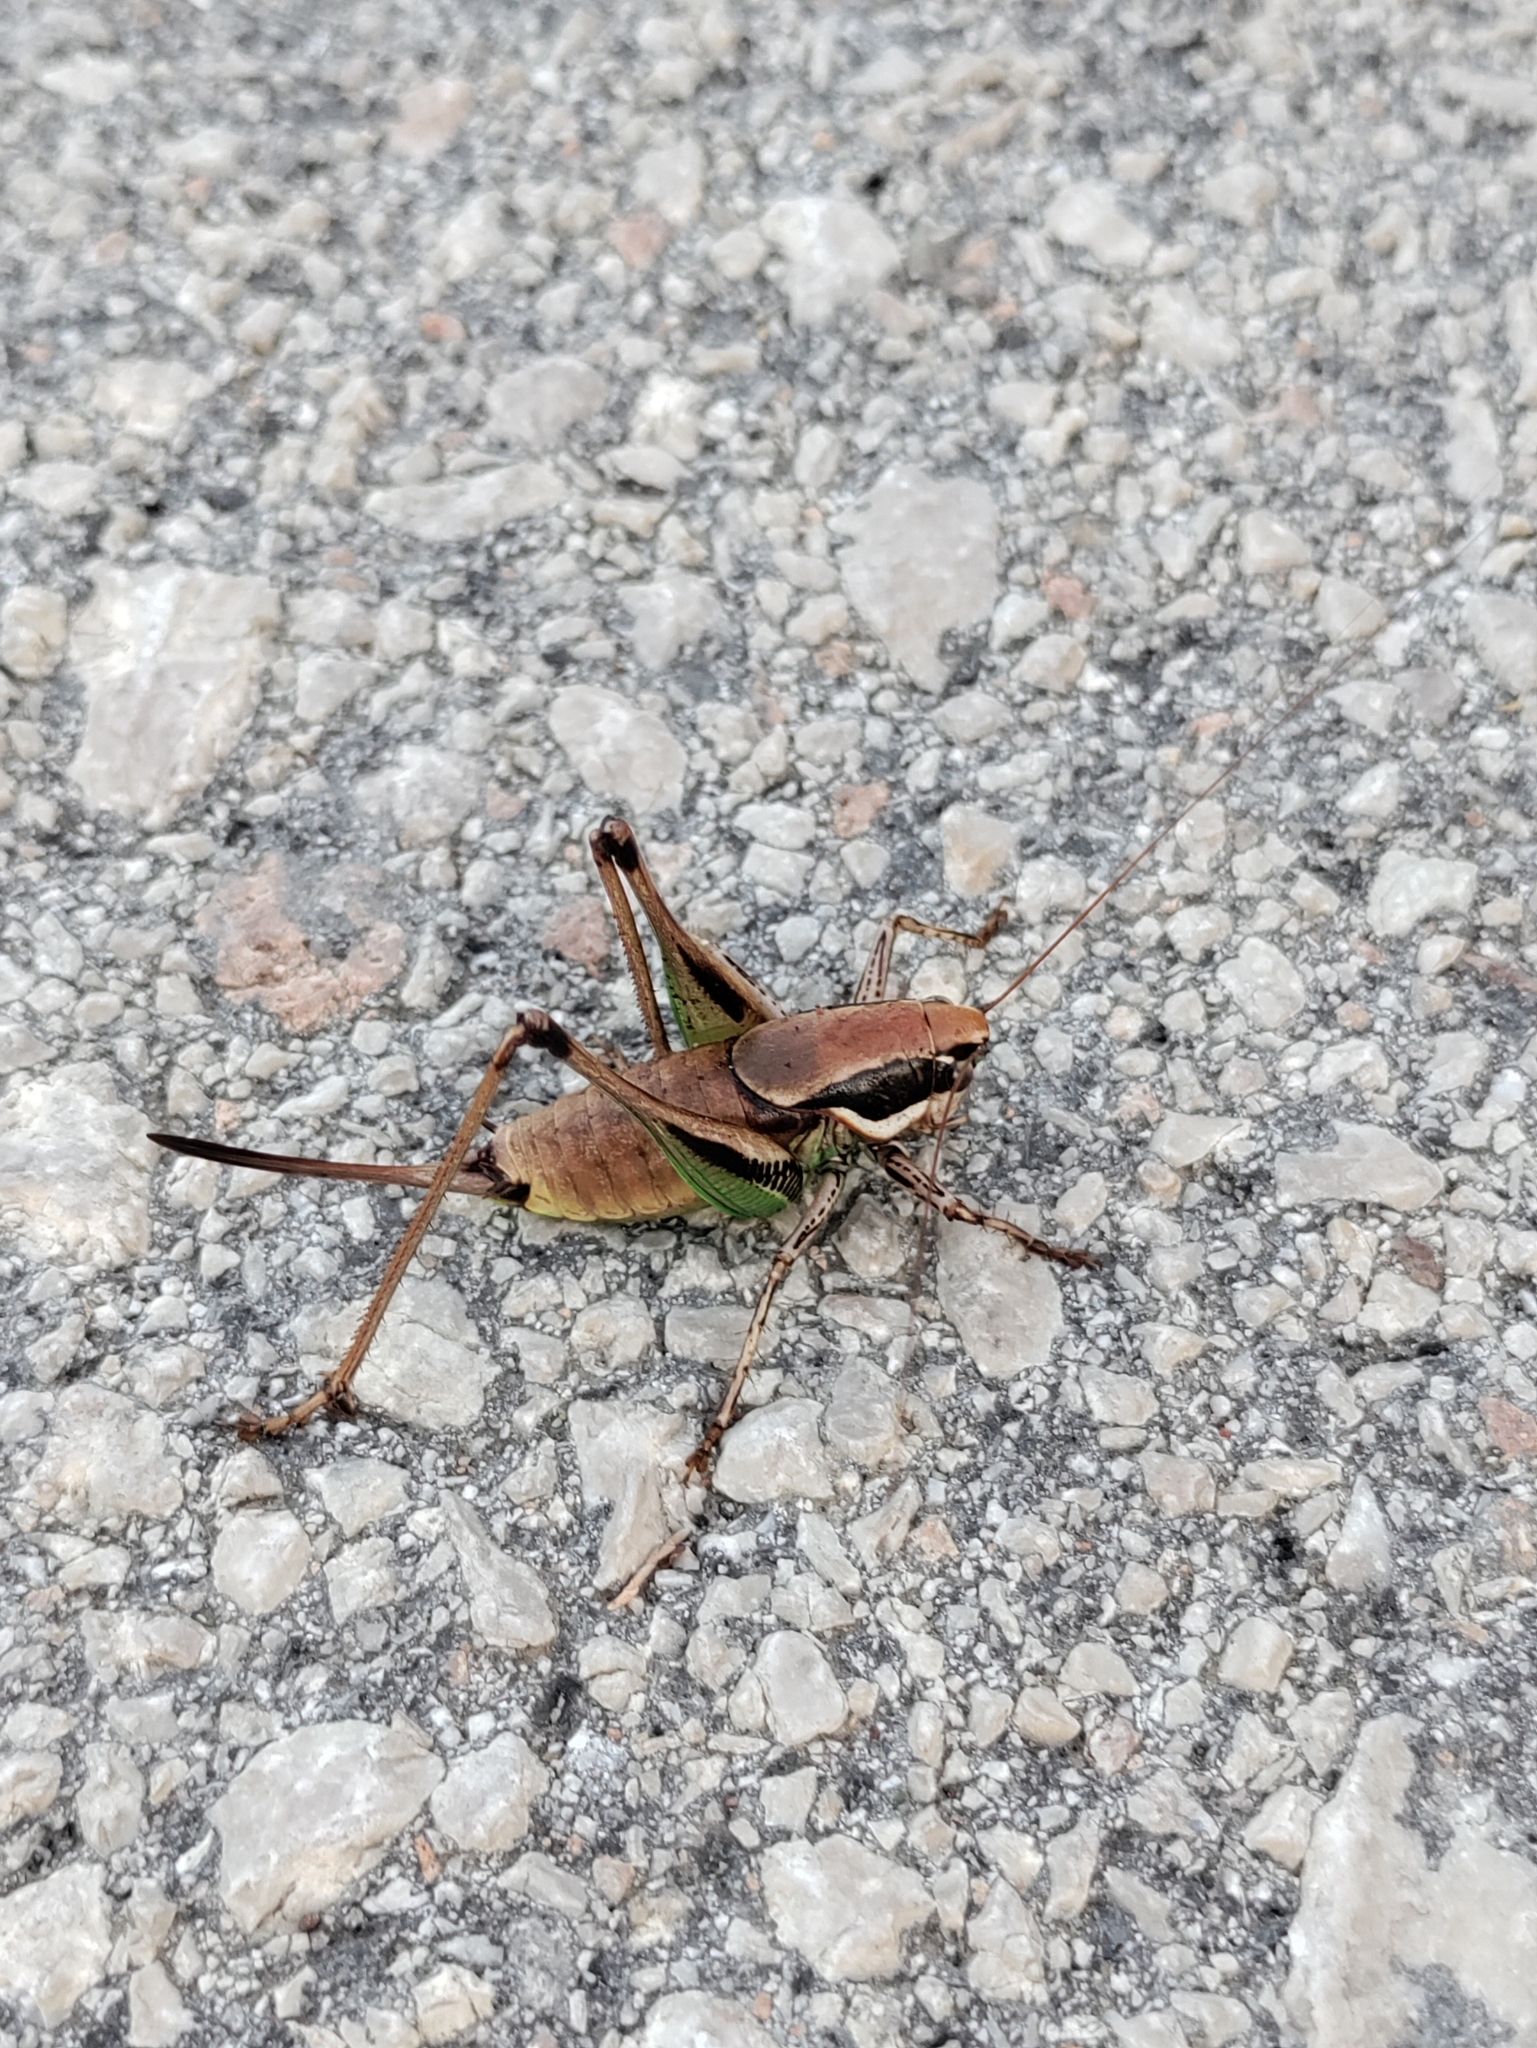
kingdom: Animalia
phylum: Arthropoda
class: Insecta
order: Orthoptera
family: Tettigoniidae
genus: Eupholidoptera
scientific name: Eupholidoptera smyrnensis
